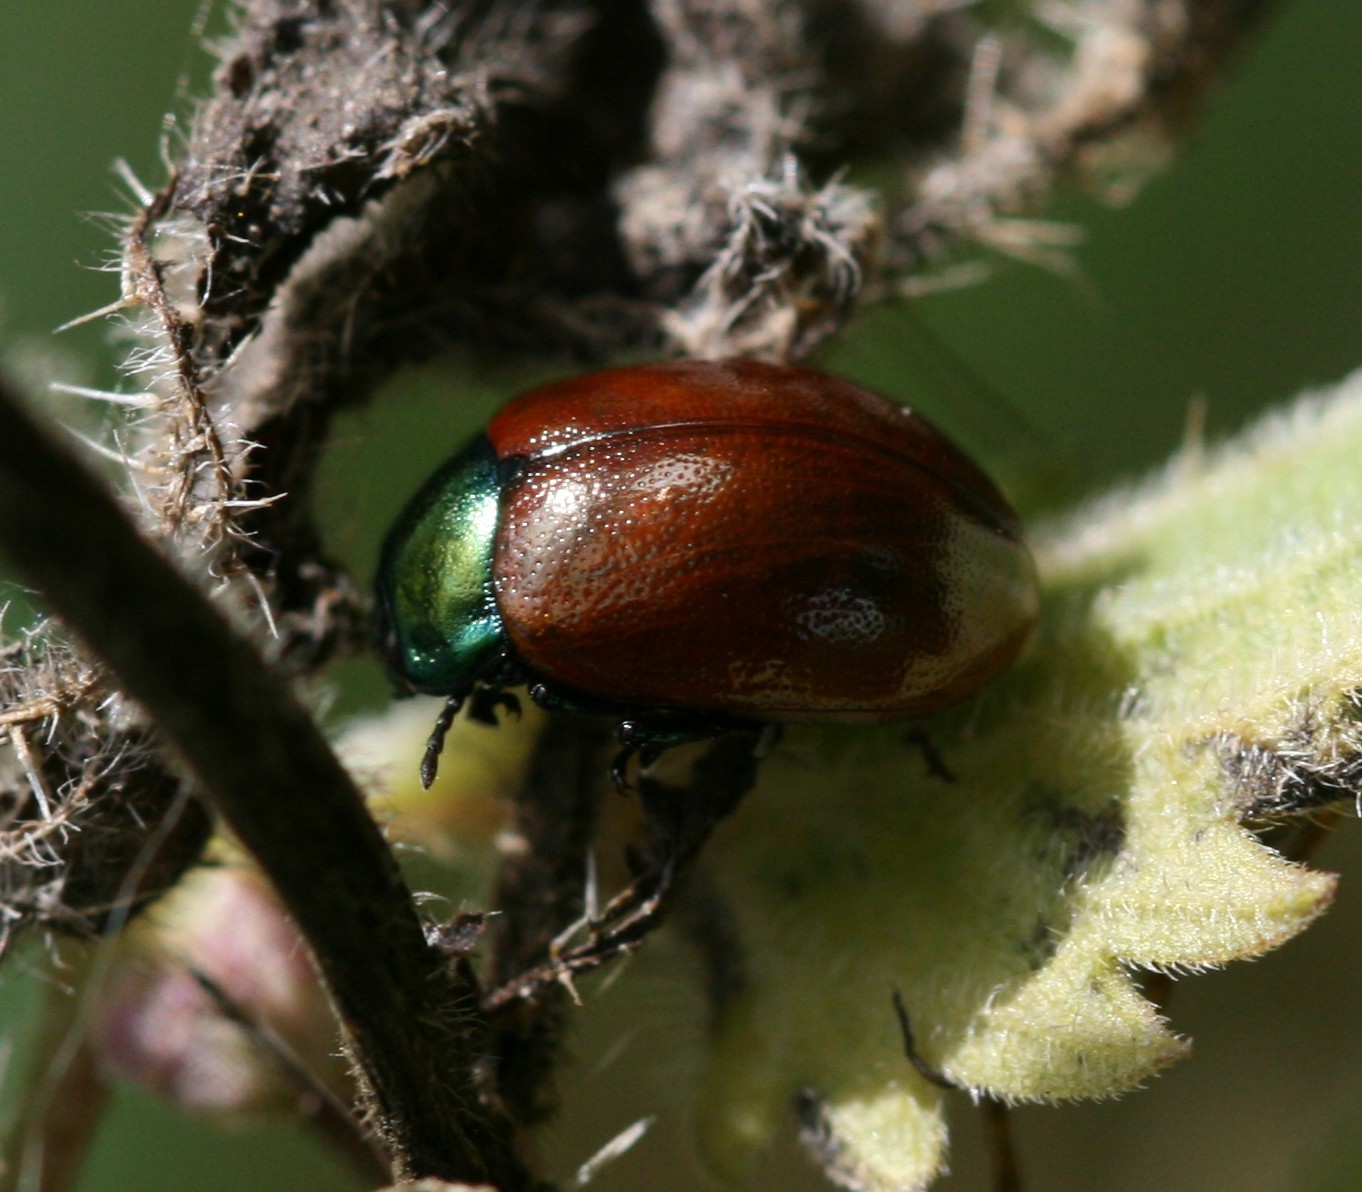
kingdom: Animalia
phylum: Arthropoda
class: Insecta
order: Coleoptera
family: Chrysomelidae
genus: Chrysomela
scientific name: Chrysomela polita
